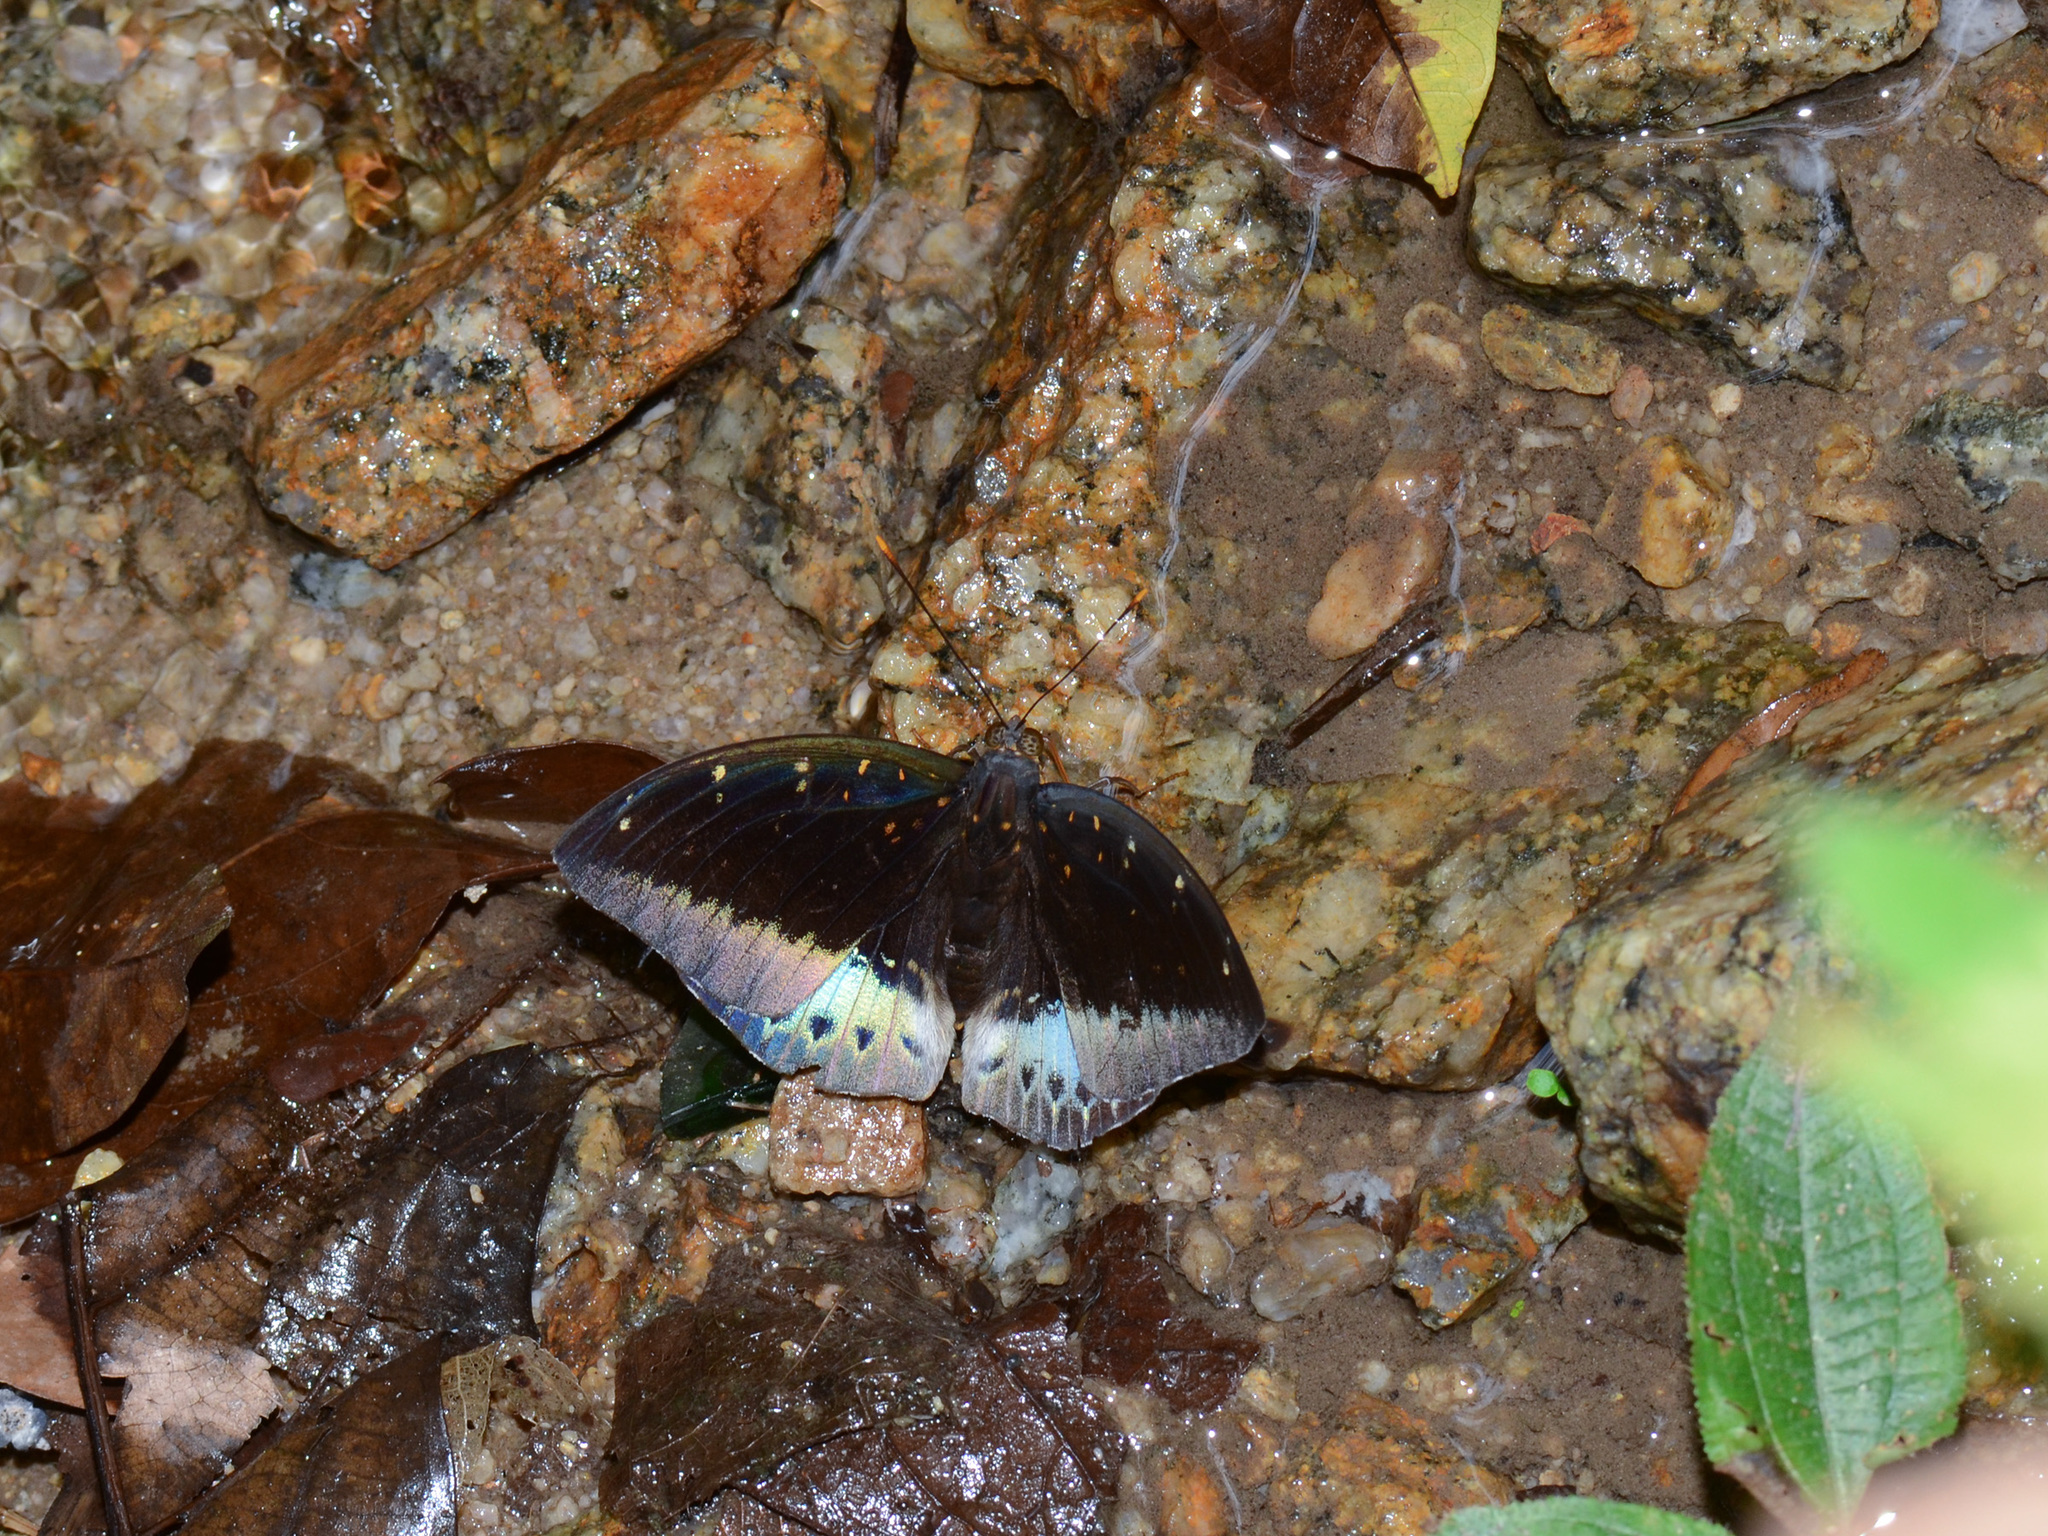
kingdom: Animalia
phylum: Arthropoda
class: Insecta
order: Lepidoptera
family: Nymphalidae
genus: Lexias
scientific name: Lexias pardalis
